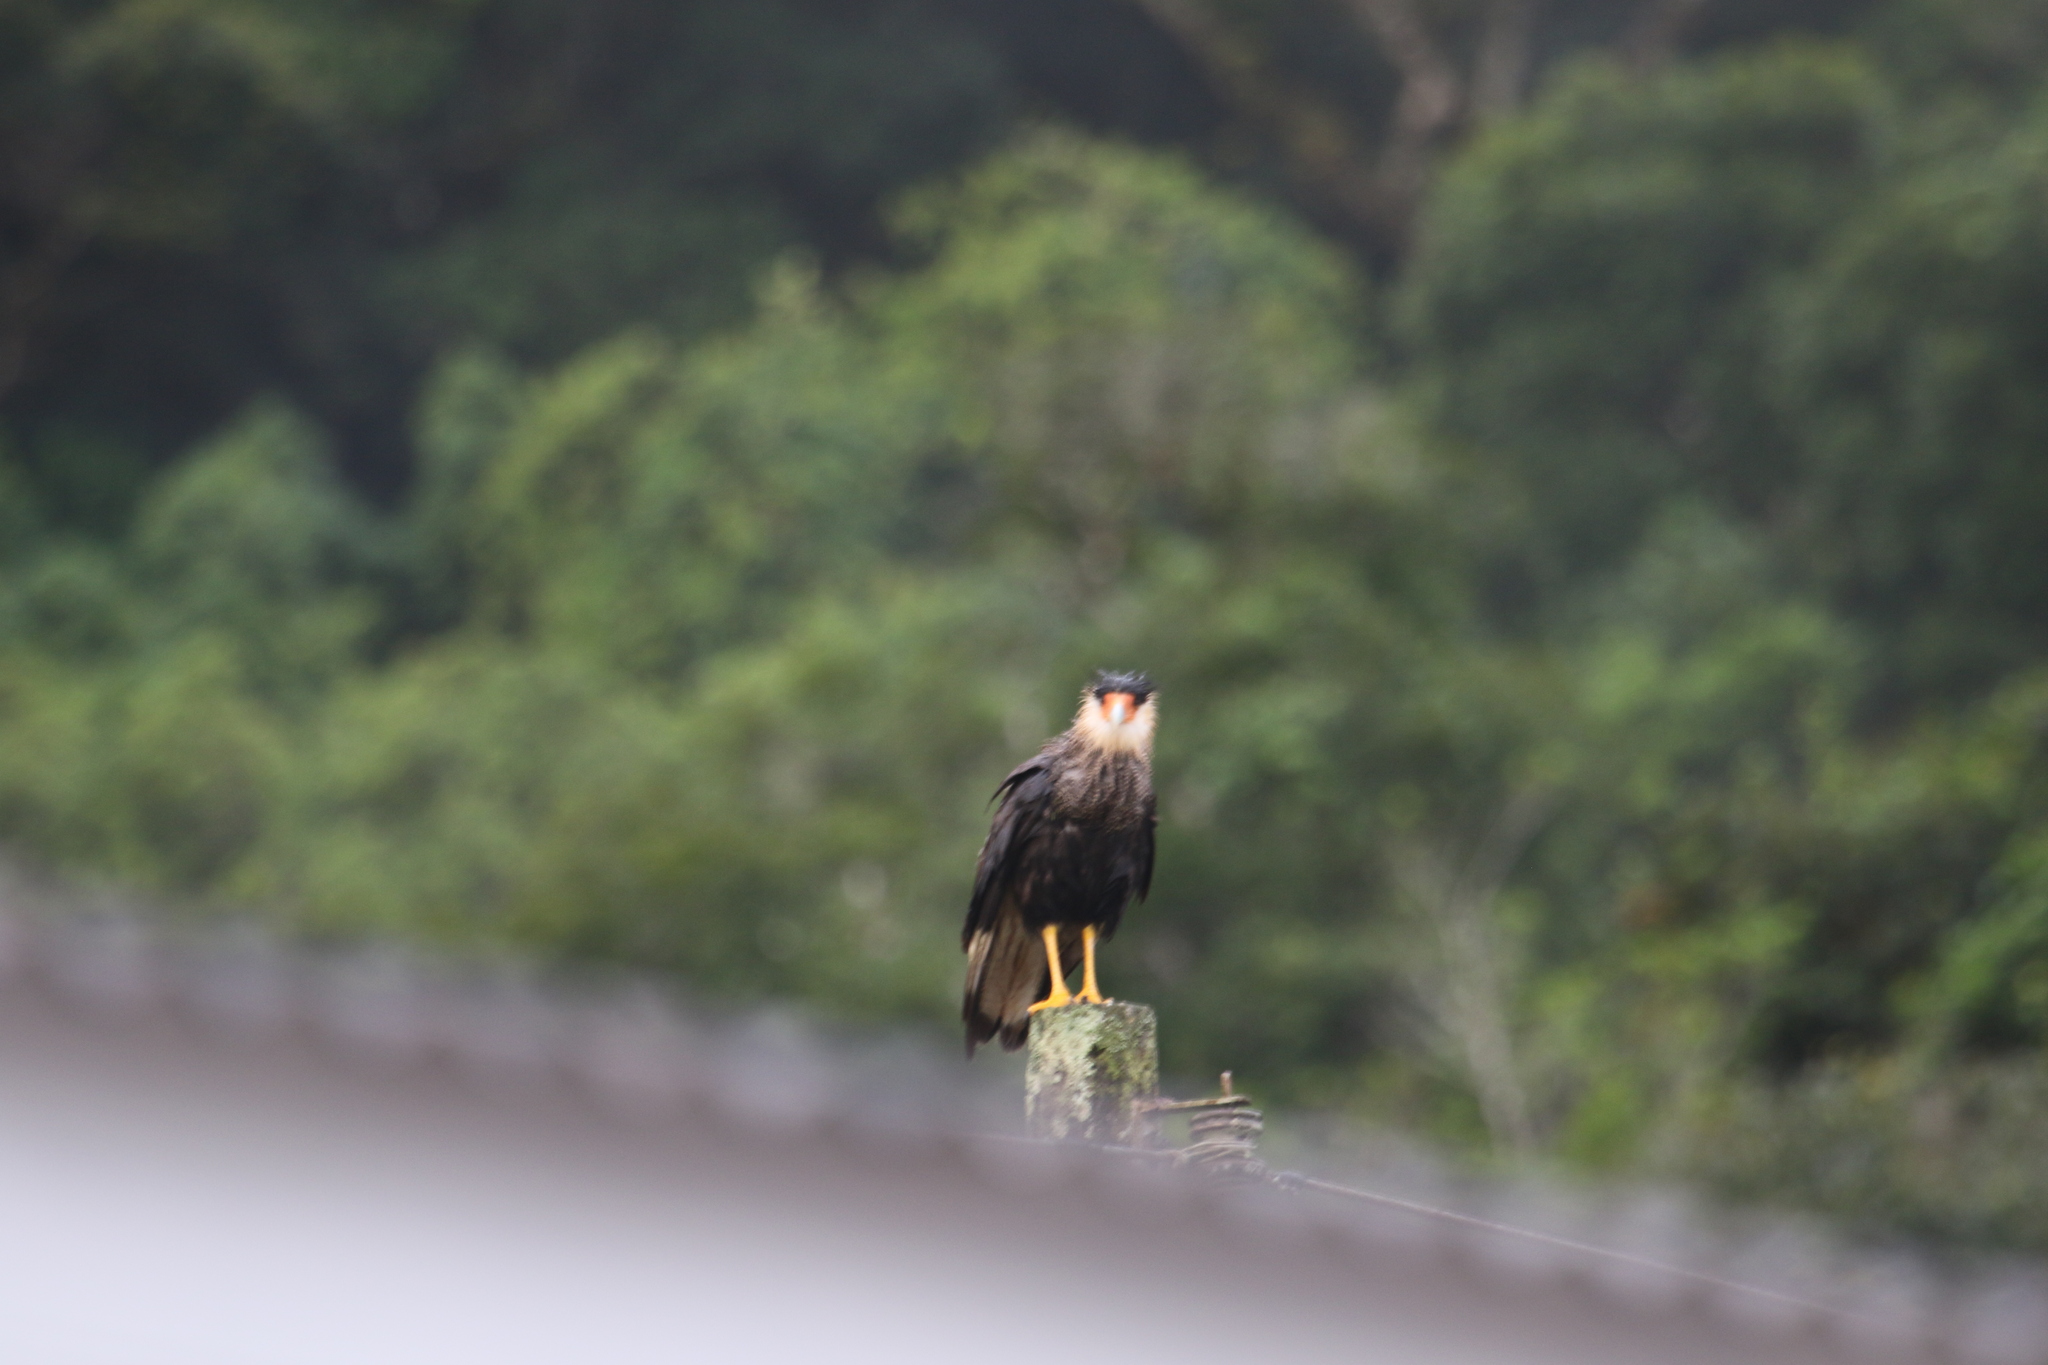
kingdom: Animalia
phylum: Chordata
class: Aves
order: Falconiformes
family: Falconidae
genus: Caracara
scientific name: Caracara plancus
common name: Southern caracara
